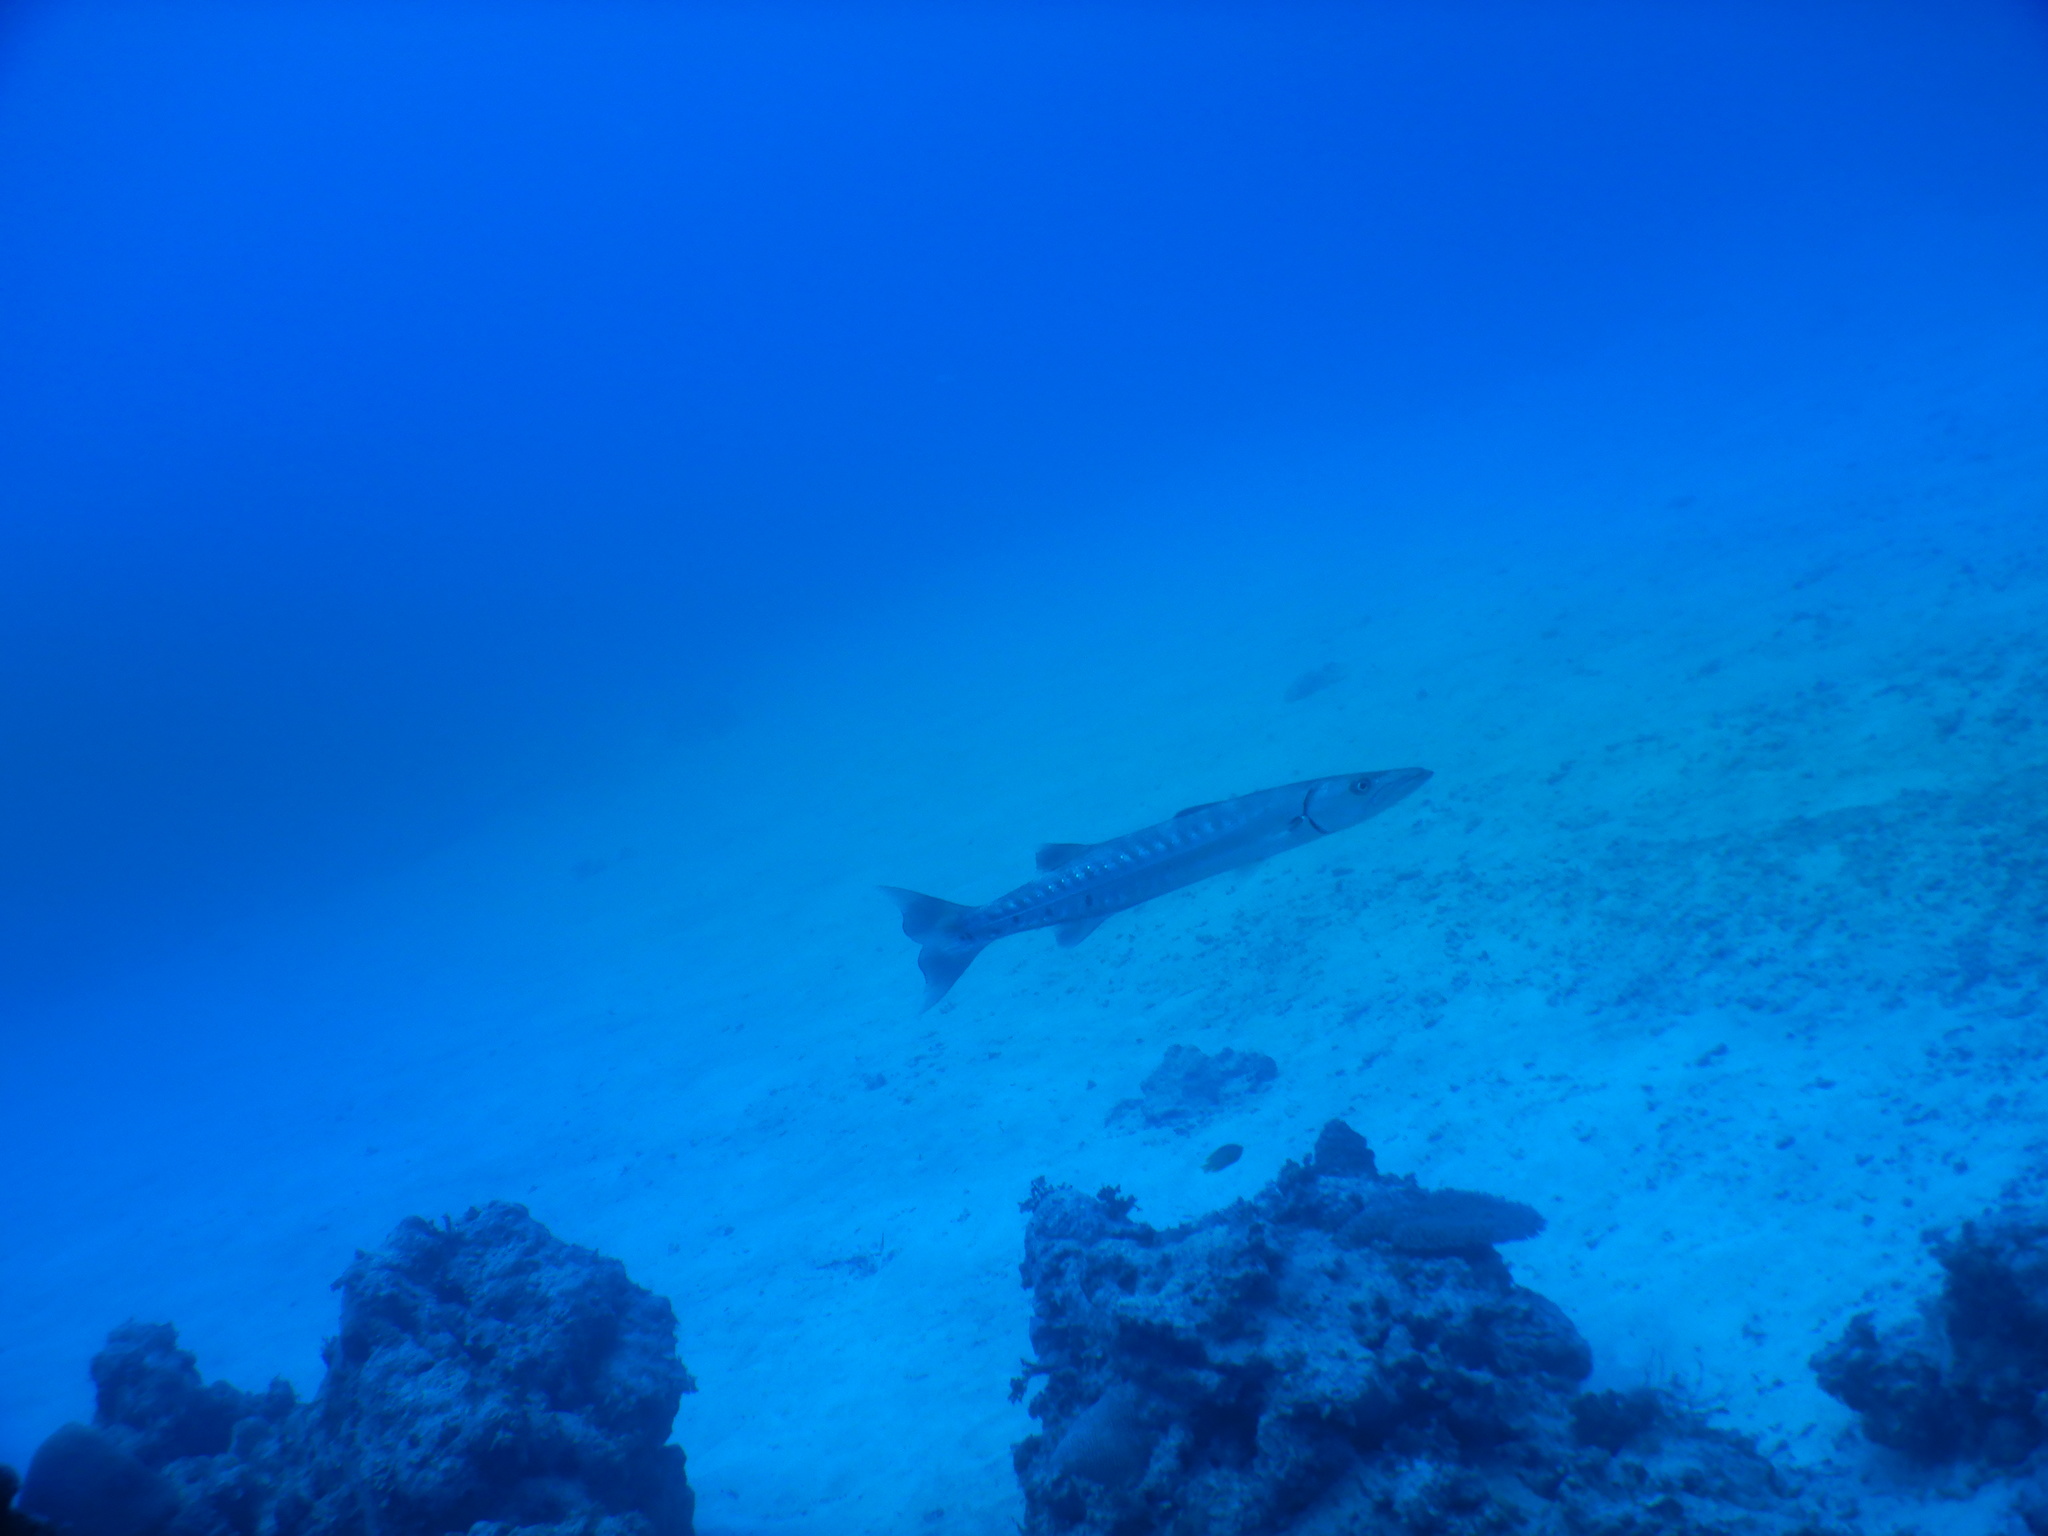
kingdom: Animalia
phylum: Chordata
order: Perciformes
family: Sphyraenidae
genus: Sphyraena
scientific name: Sphyraena barracuda
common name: Great barracuda
